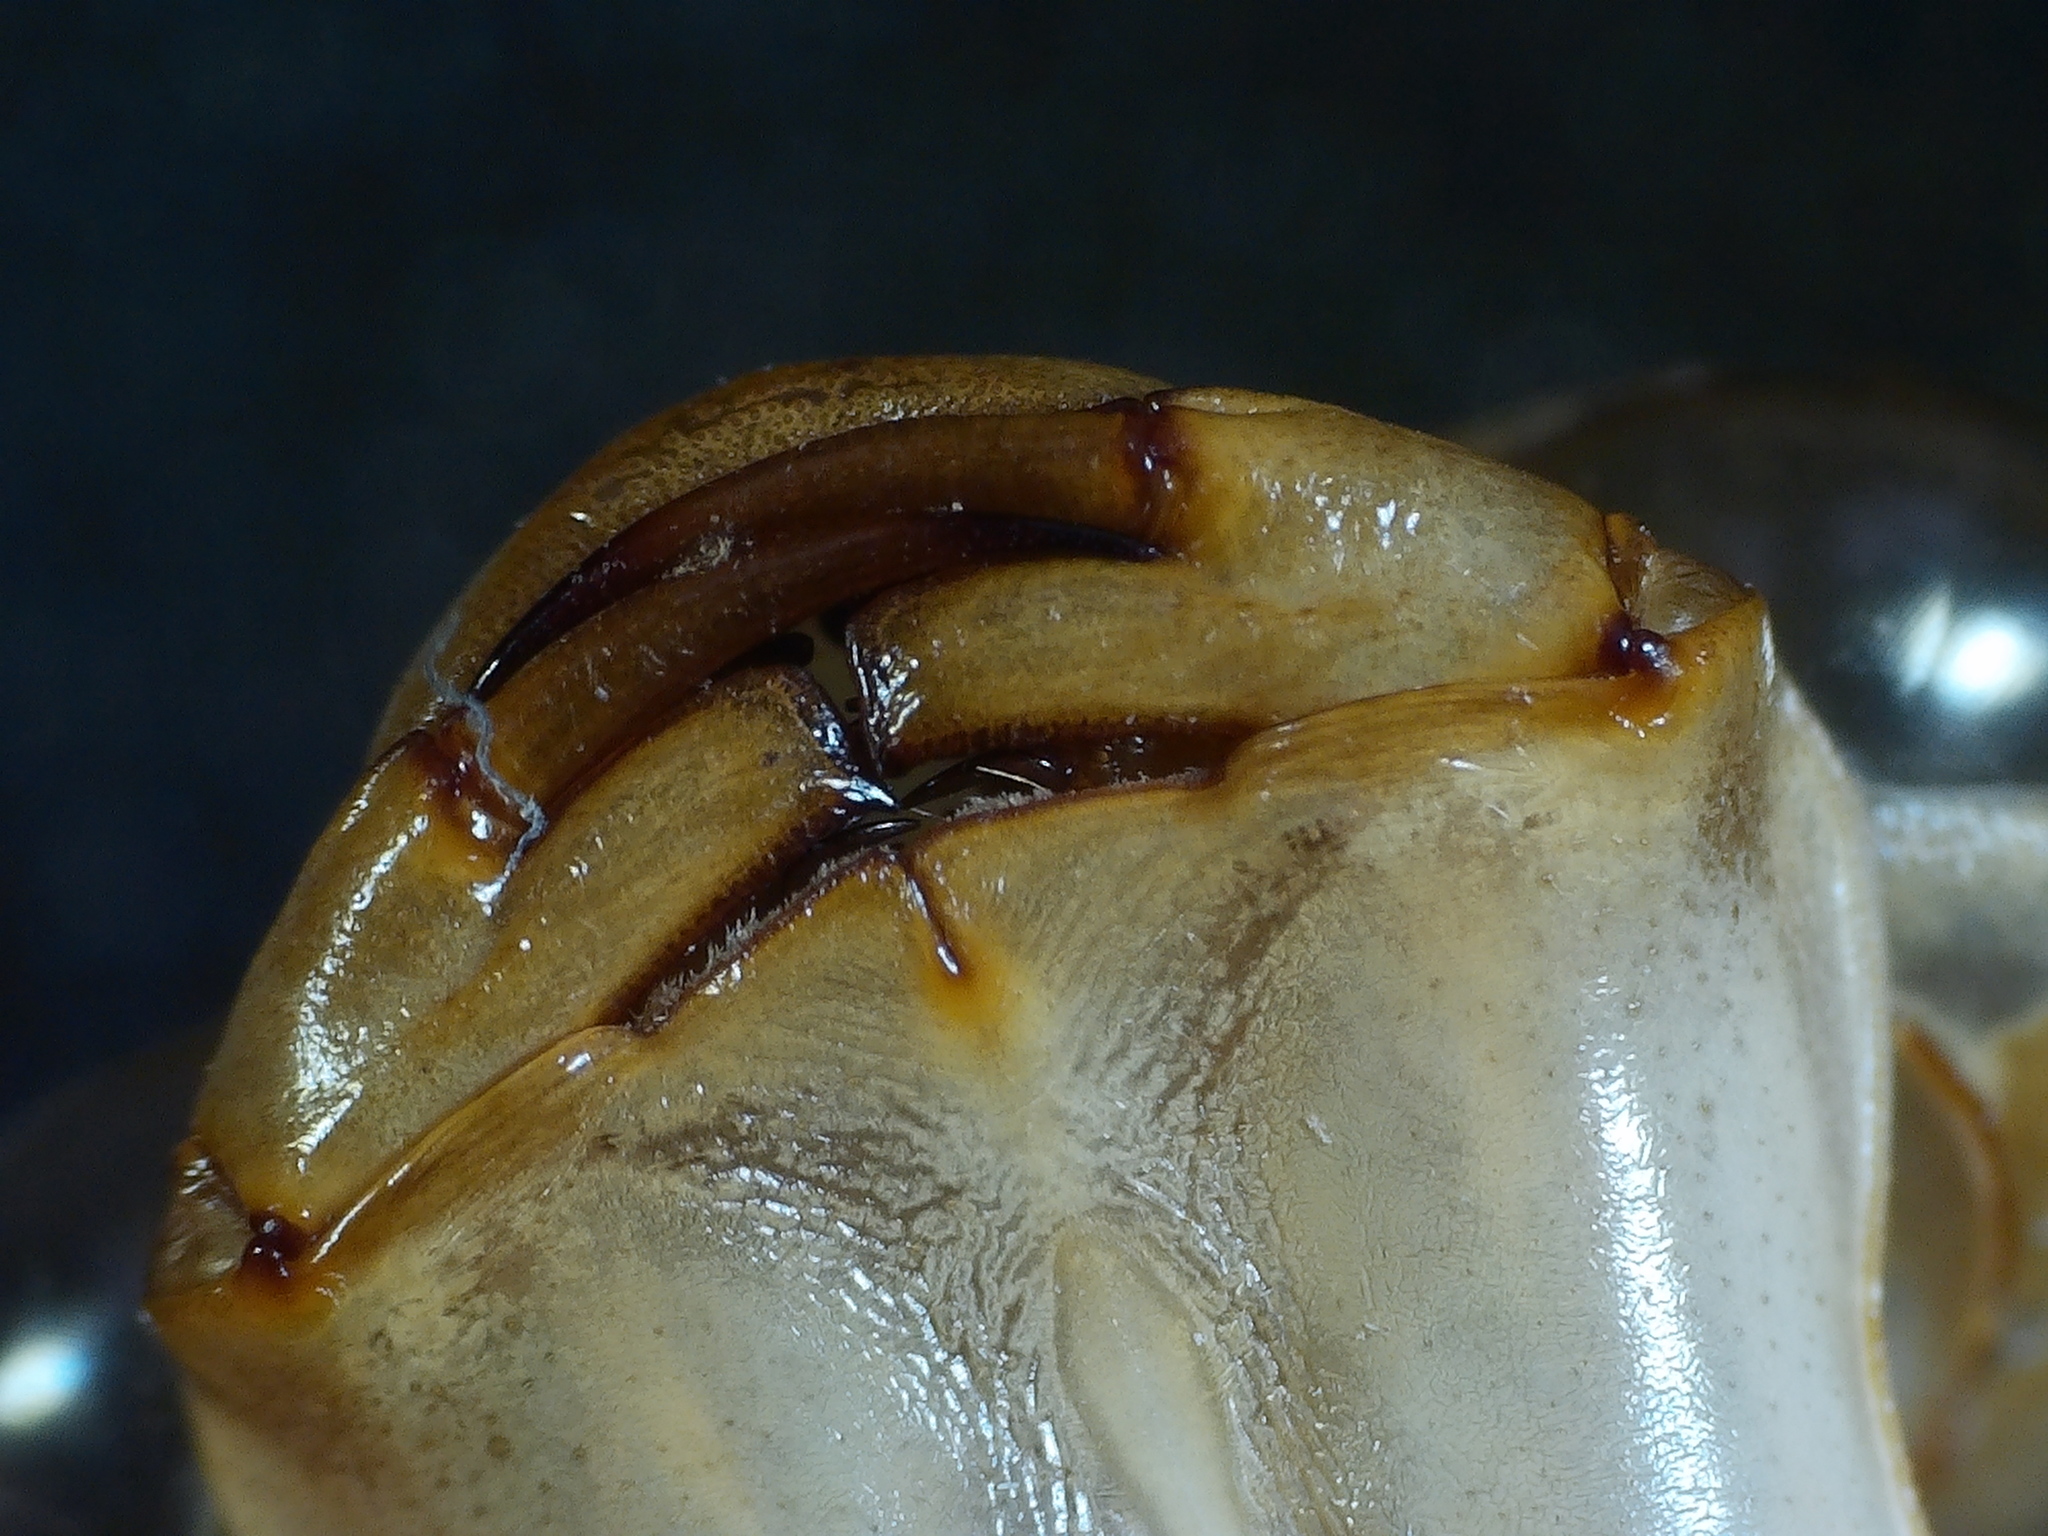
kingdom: Animalia
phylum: Arthropoda
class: Insecta
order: Odonata
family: Aeshnidae
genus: Aeshna
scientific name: Aeshna umbrosa
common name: Shadow darner
